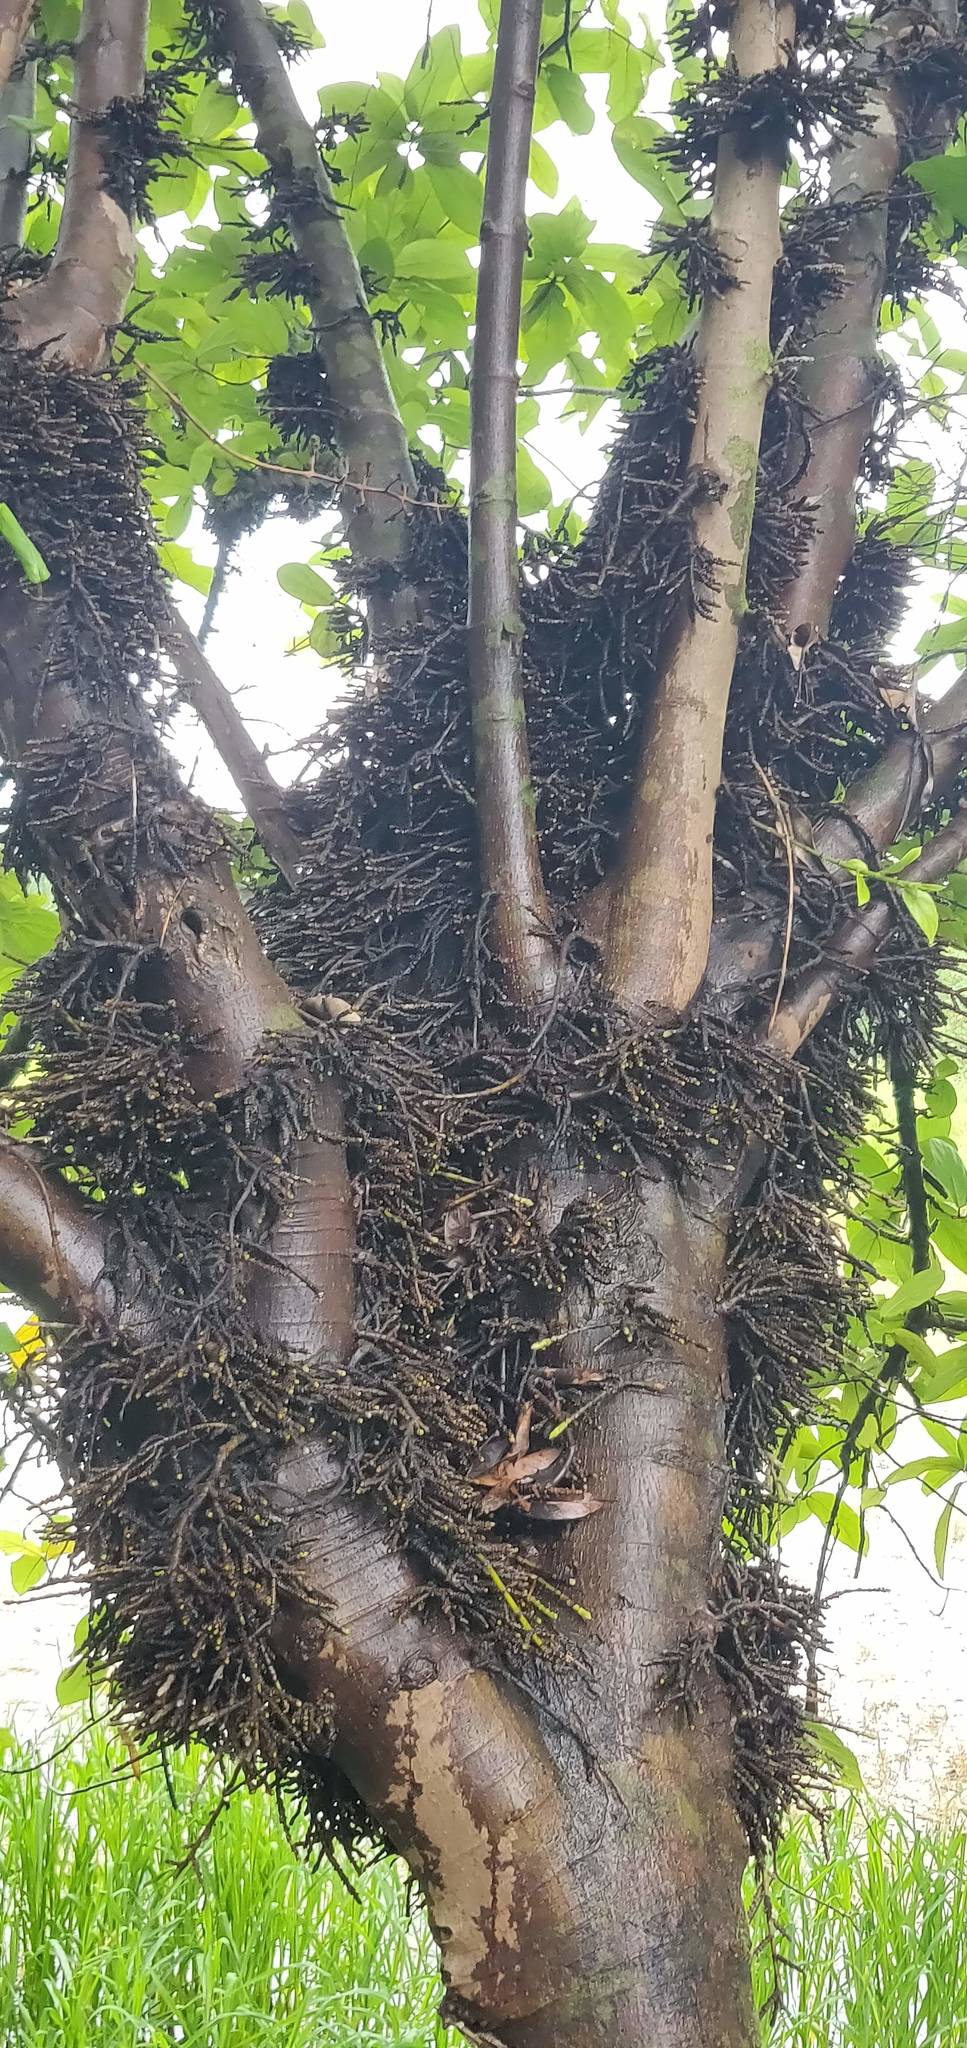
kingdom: Plantae
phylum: Tracheophyta
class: Magnoliopsida
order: Rosales
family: Moraceae
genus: Ficus
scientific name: Ficus hispida
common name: Hairy fig
